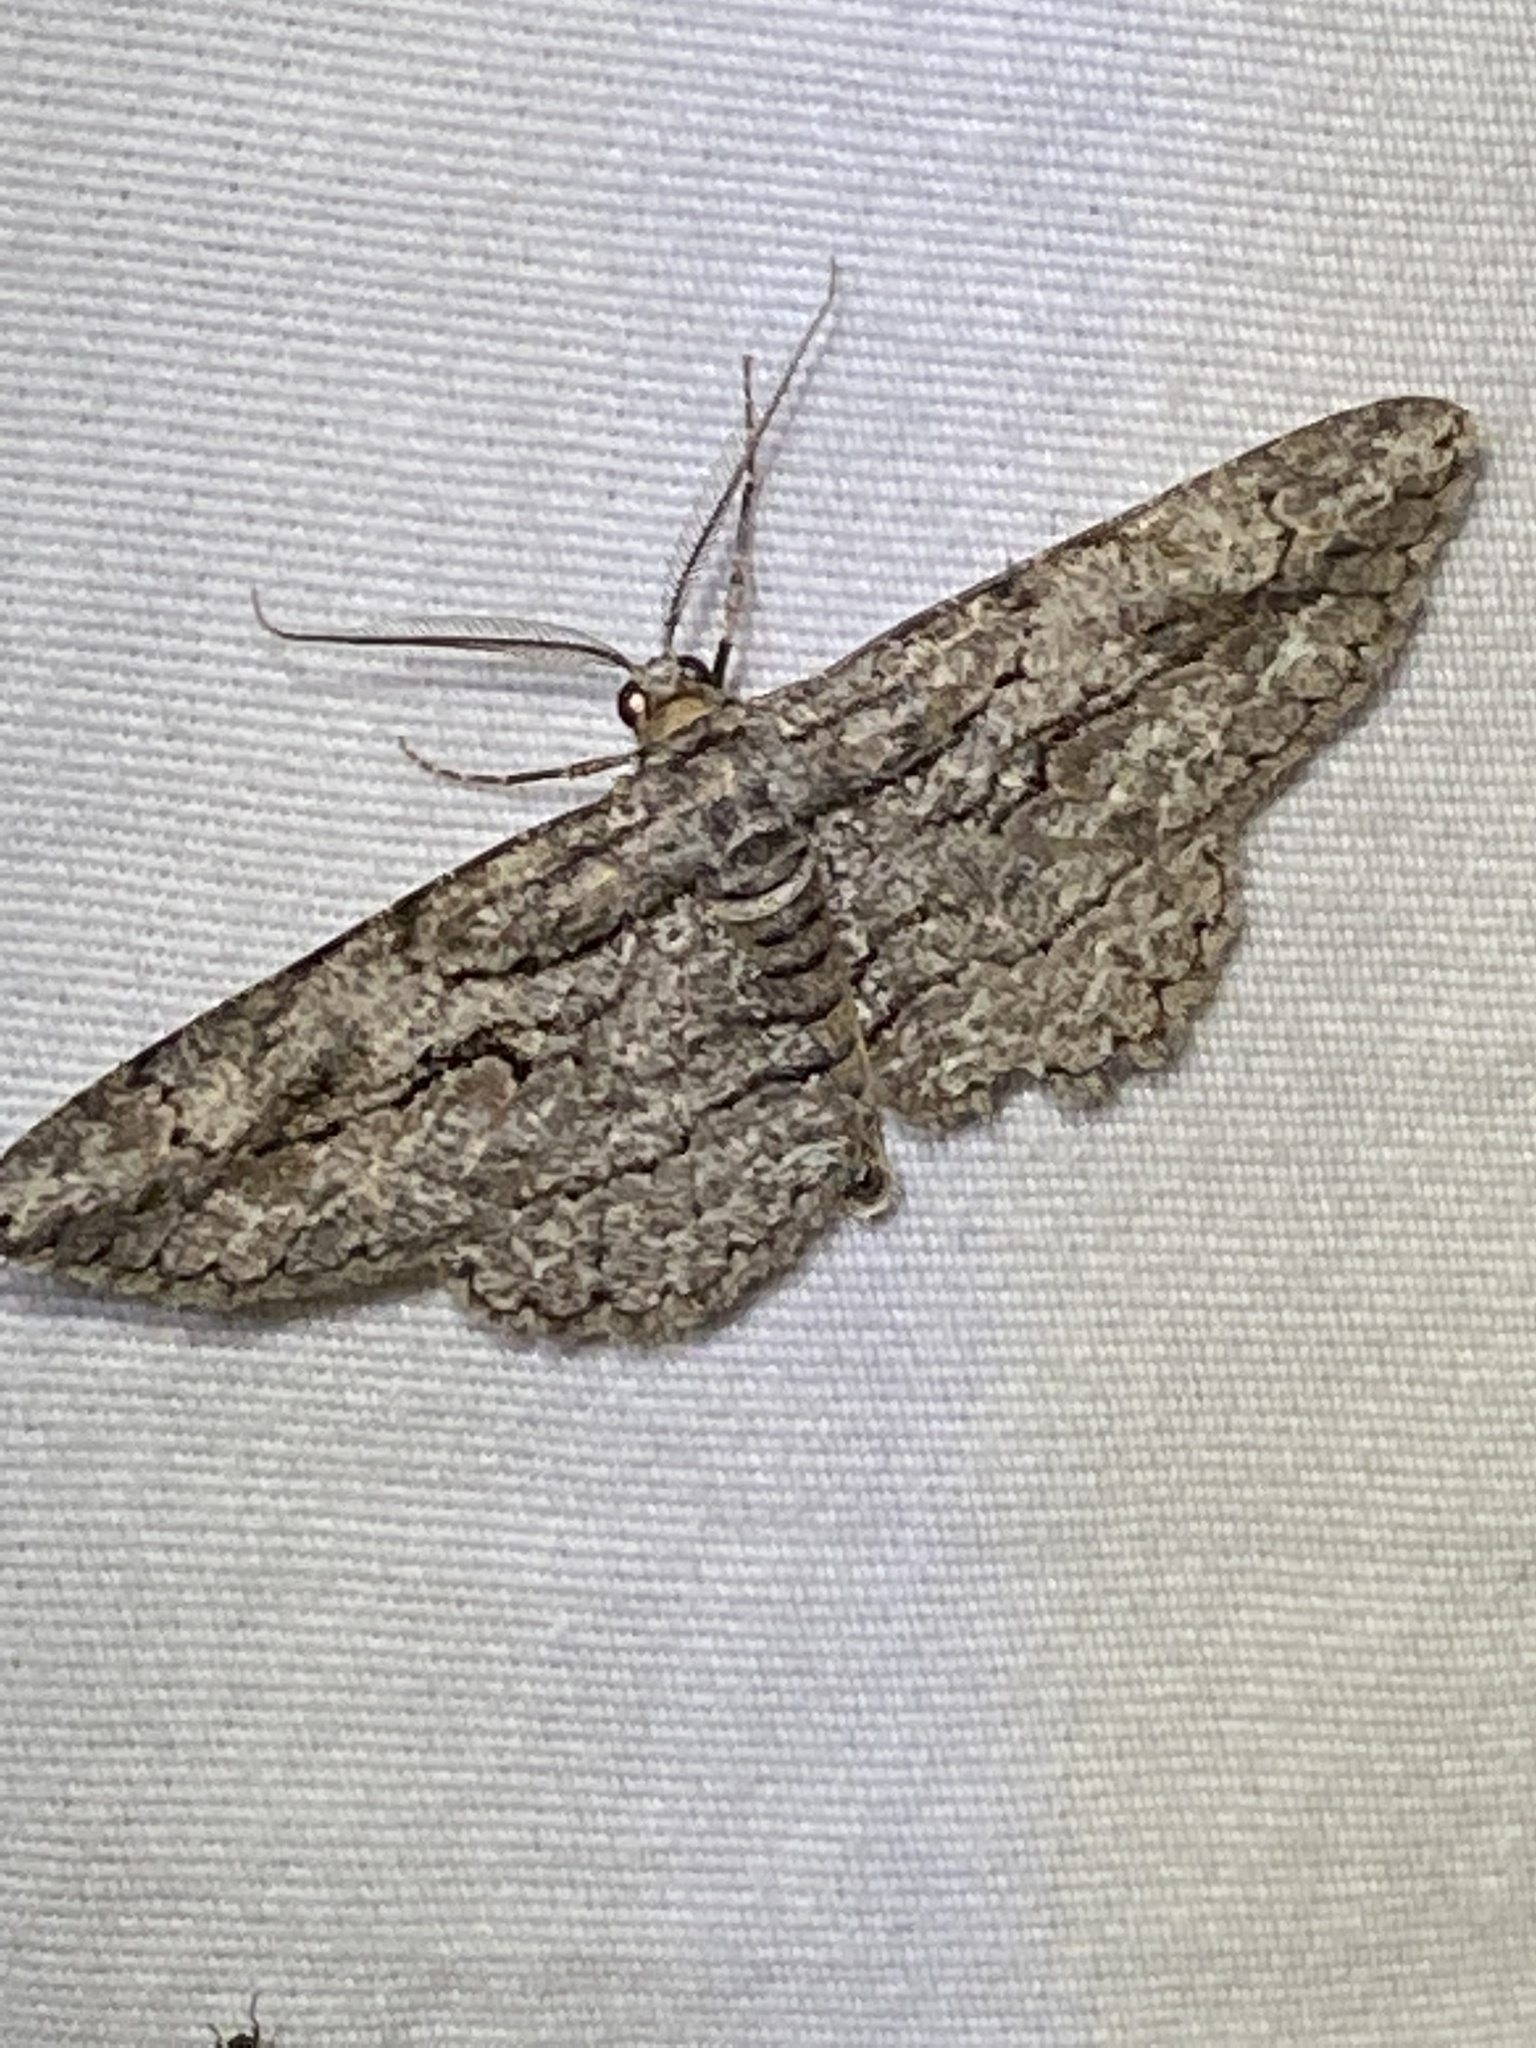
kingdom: Animalia
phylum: Arthropoda
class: Insecta
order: Lepidoptera
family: Geometridae
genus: Anavitrinella
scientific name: Anavitrinella pampinaria
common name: Common gray
